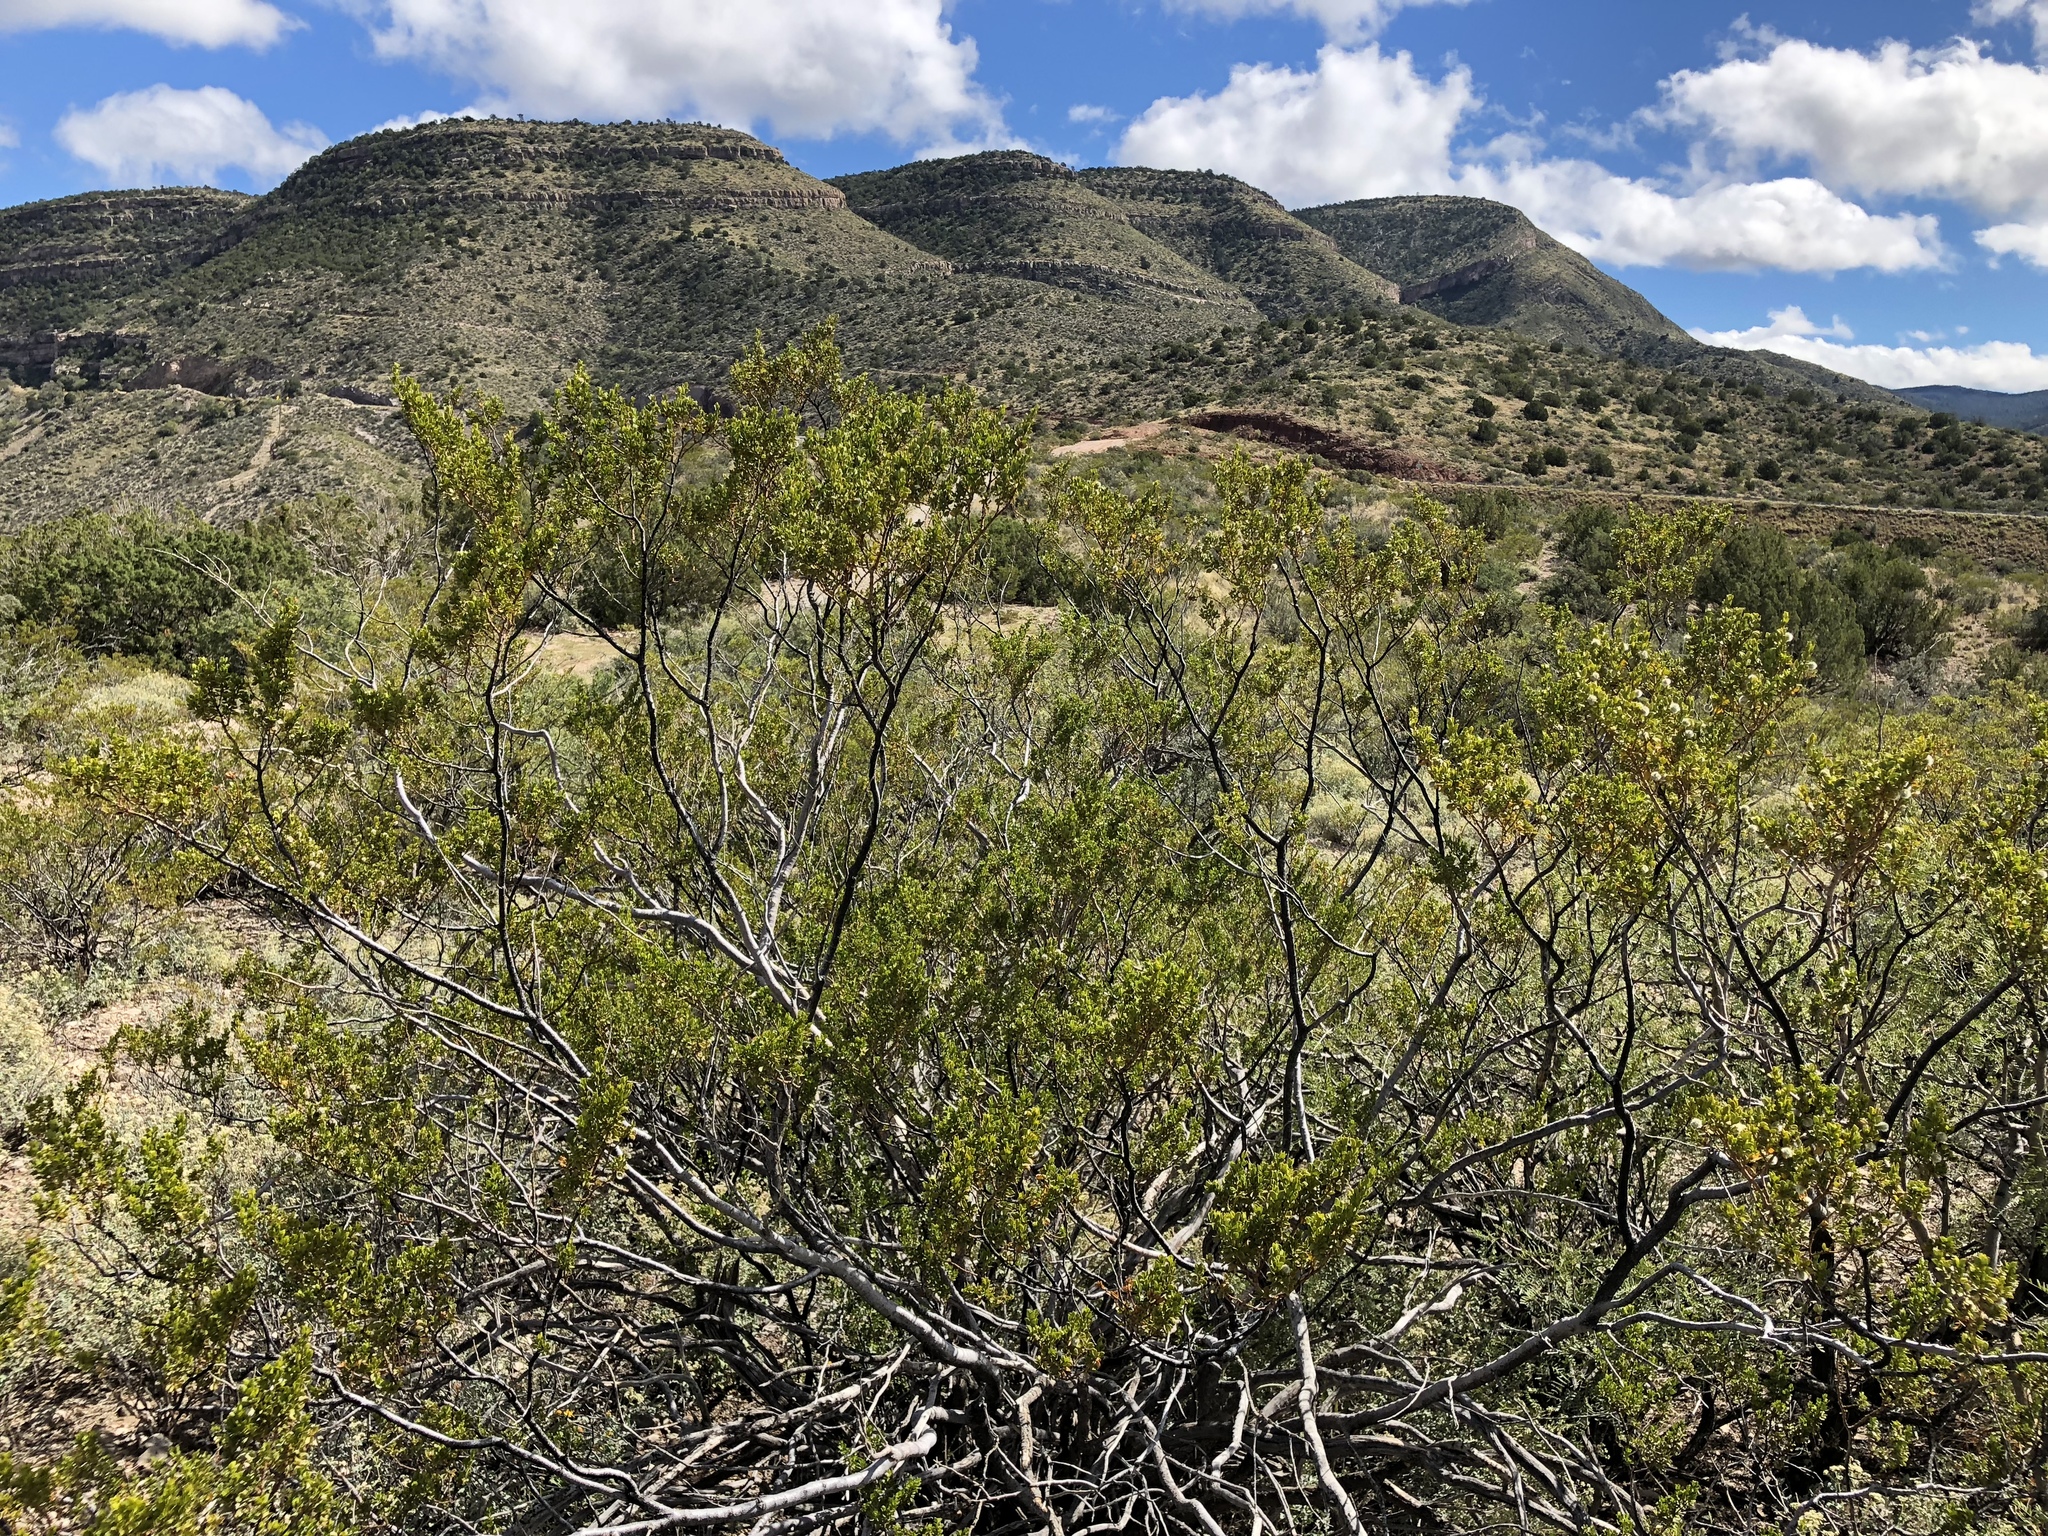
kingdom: Plantae
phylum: Tracheophyta
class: Magnoliopsida
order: Zygophyllales
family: Zygophyllaceae
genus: Larrea
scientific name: Larrea tridentata
